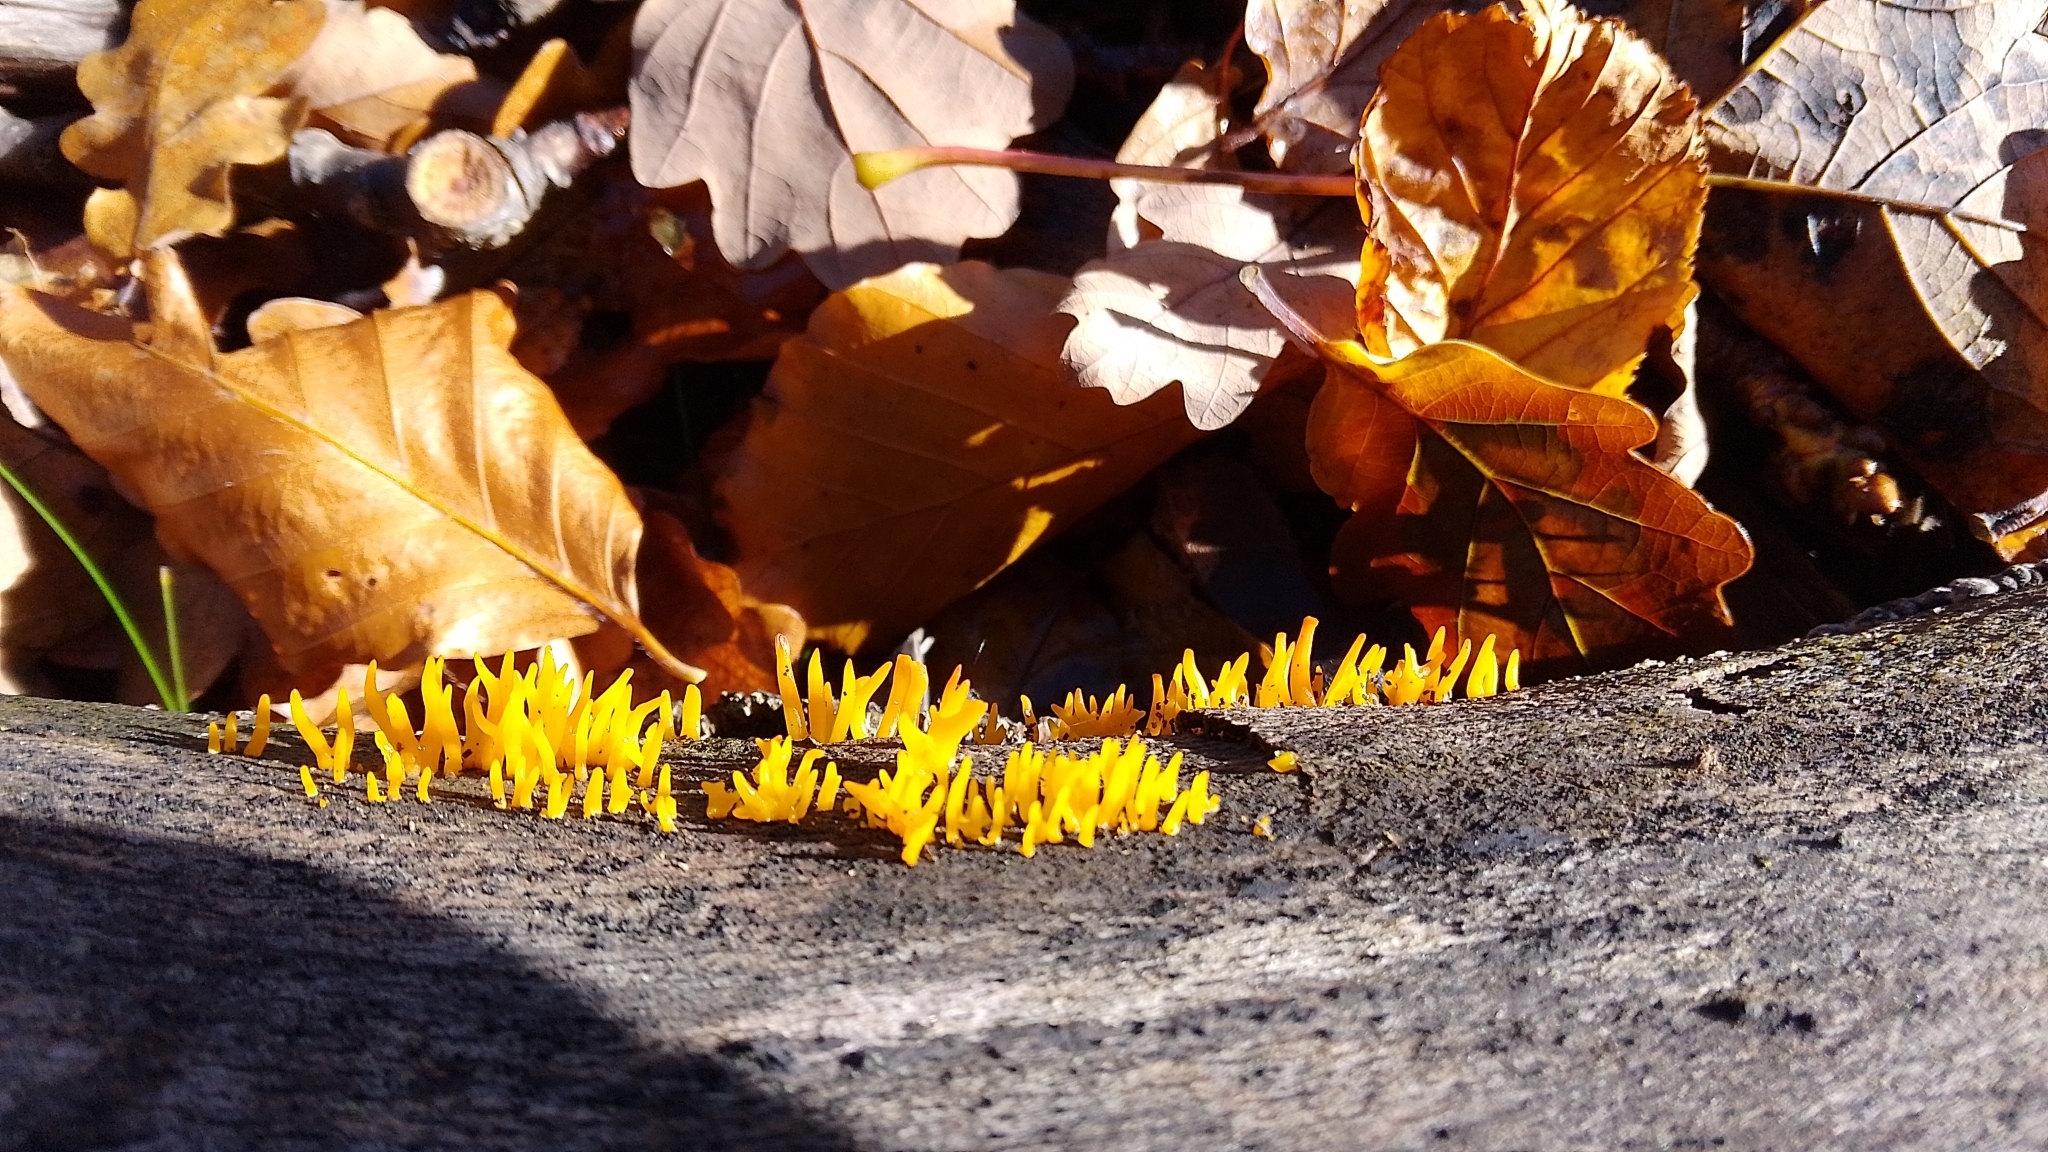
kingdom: Fungi
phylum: Basidiomycota
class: Dacrymycetes
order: Dacrymycetales
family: Dacrymycetaceae
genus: Calocera
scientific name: Calocera viscosa
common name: Yellow stagshorn
